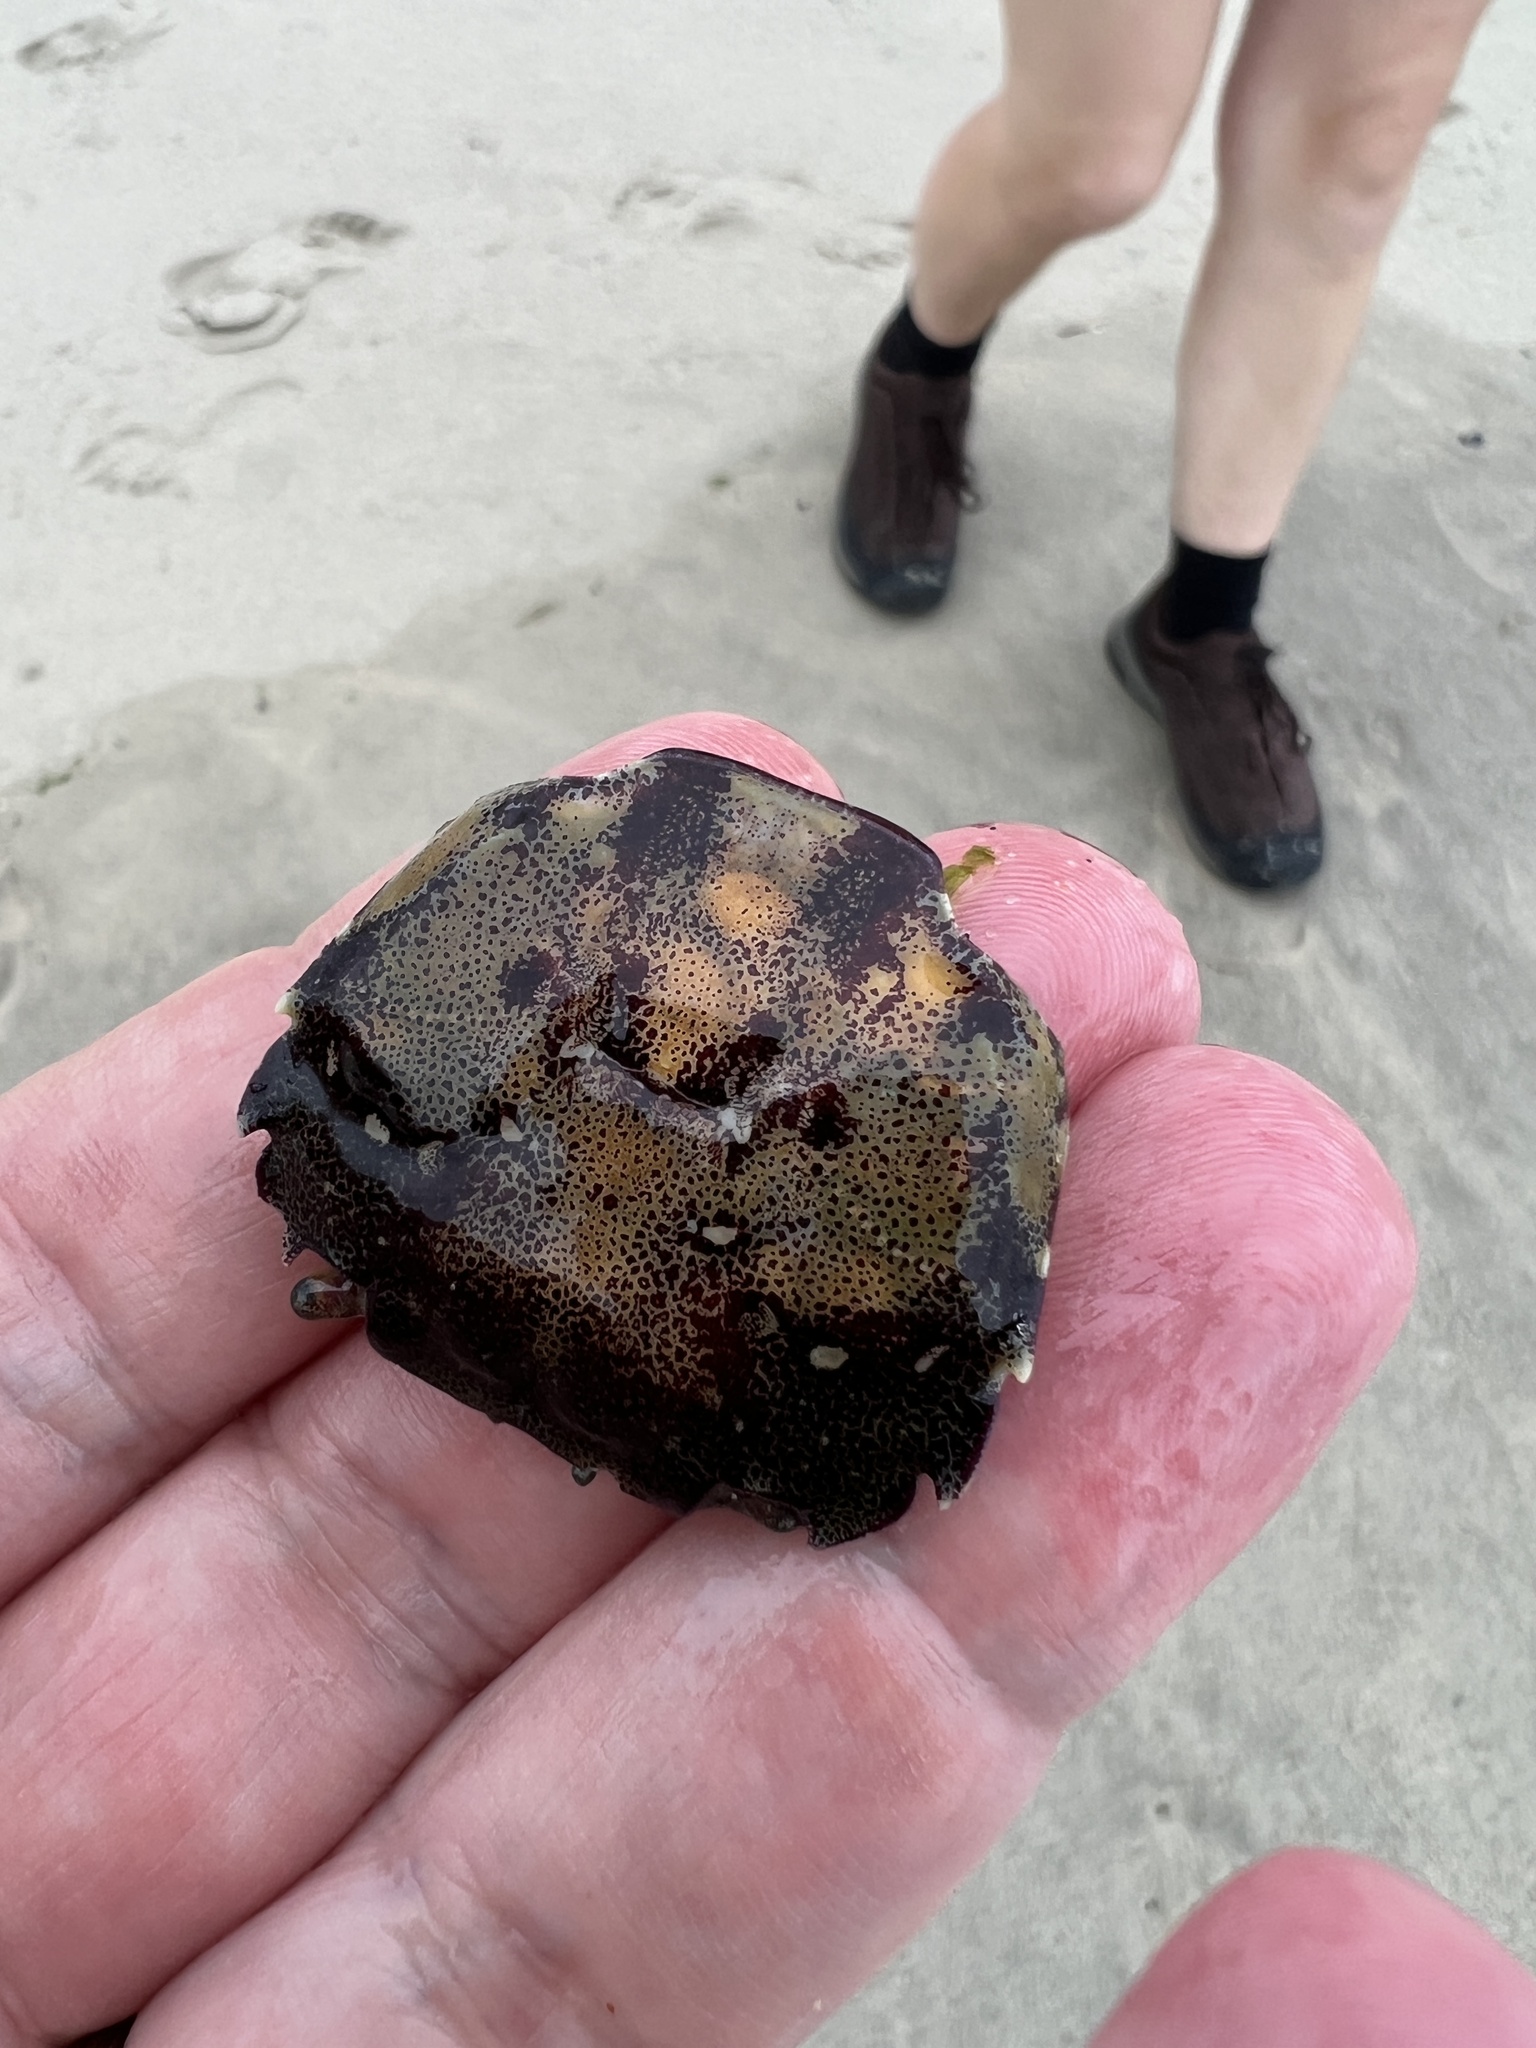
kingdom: Animalia
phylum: Arthropoda
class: Malacostraca
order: Decapoda
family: Varunidae
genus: Hemigrapsus
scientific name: Hemigrapsus sanguineus
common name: Asian shore crab
